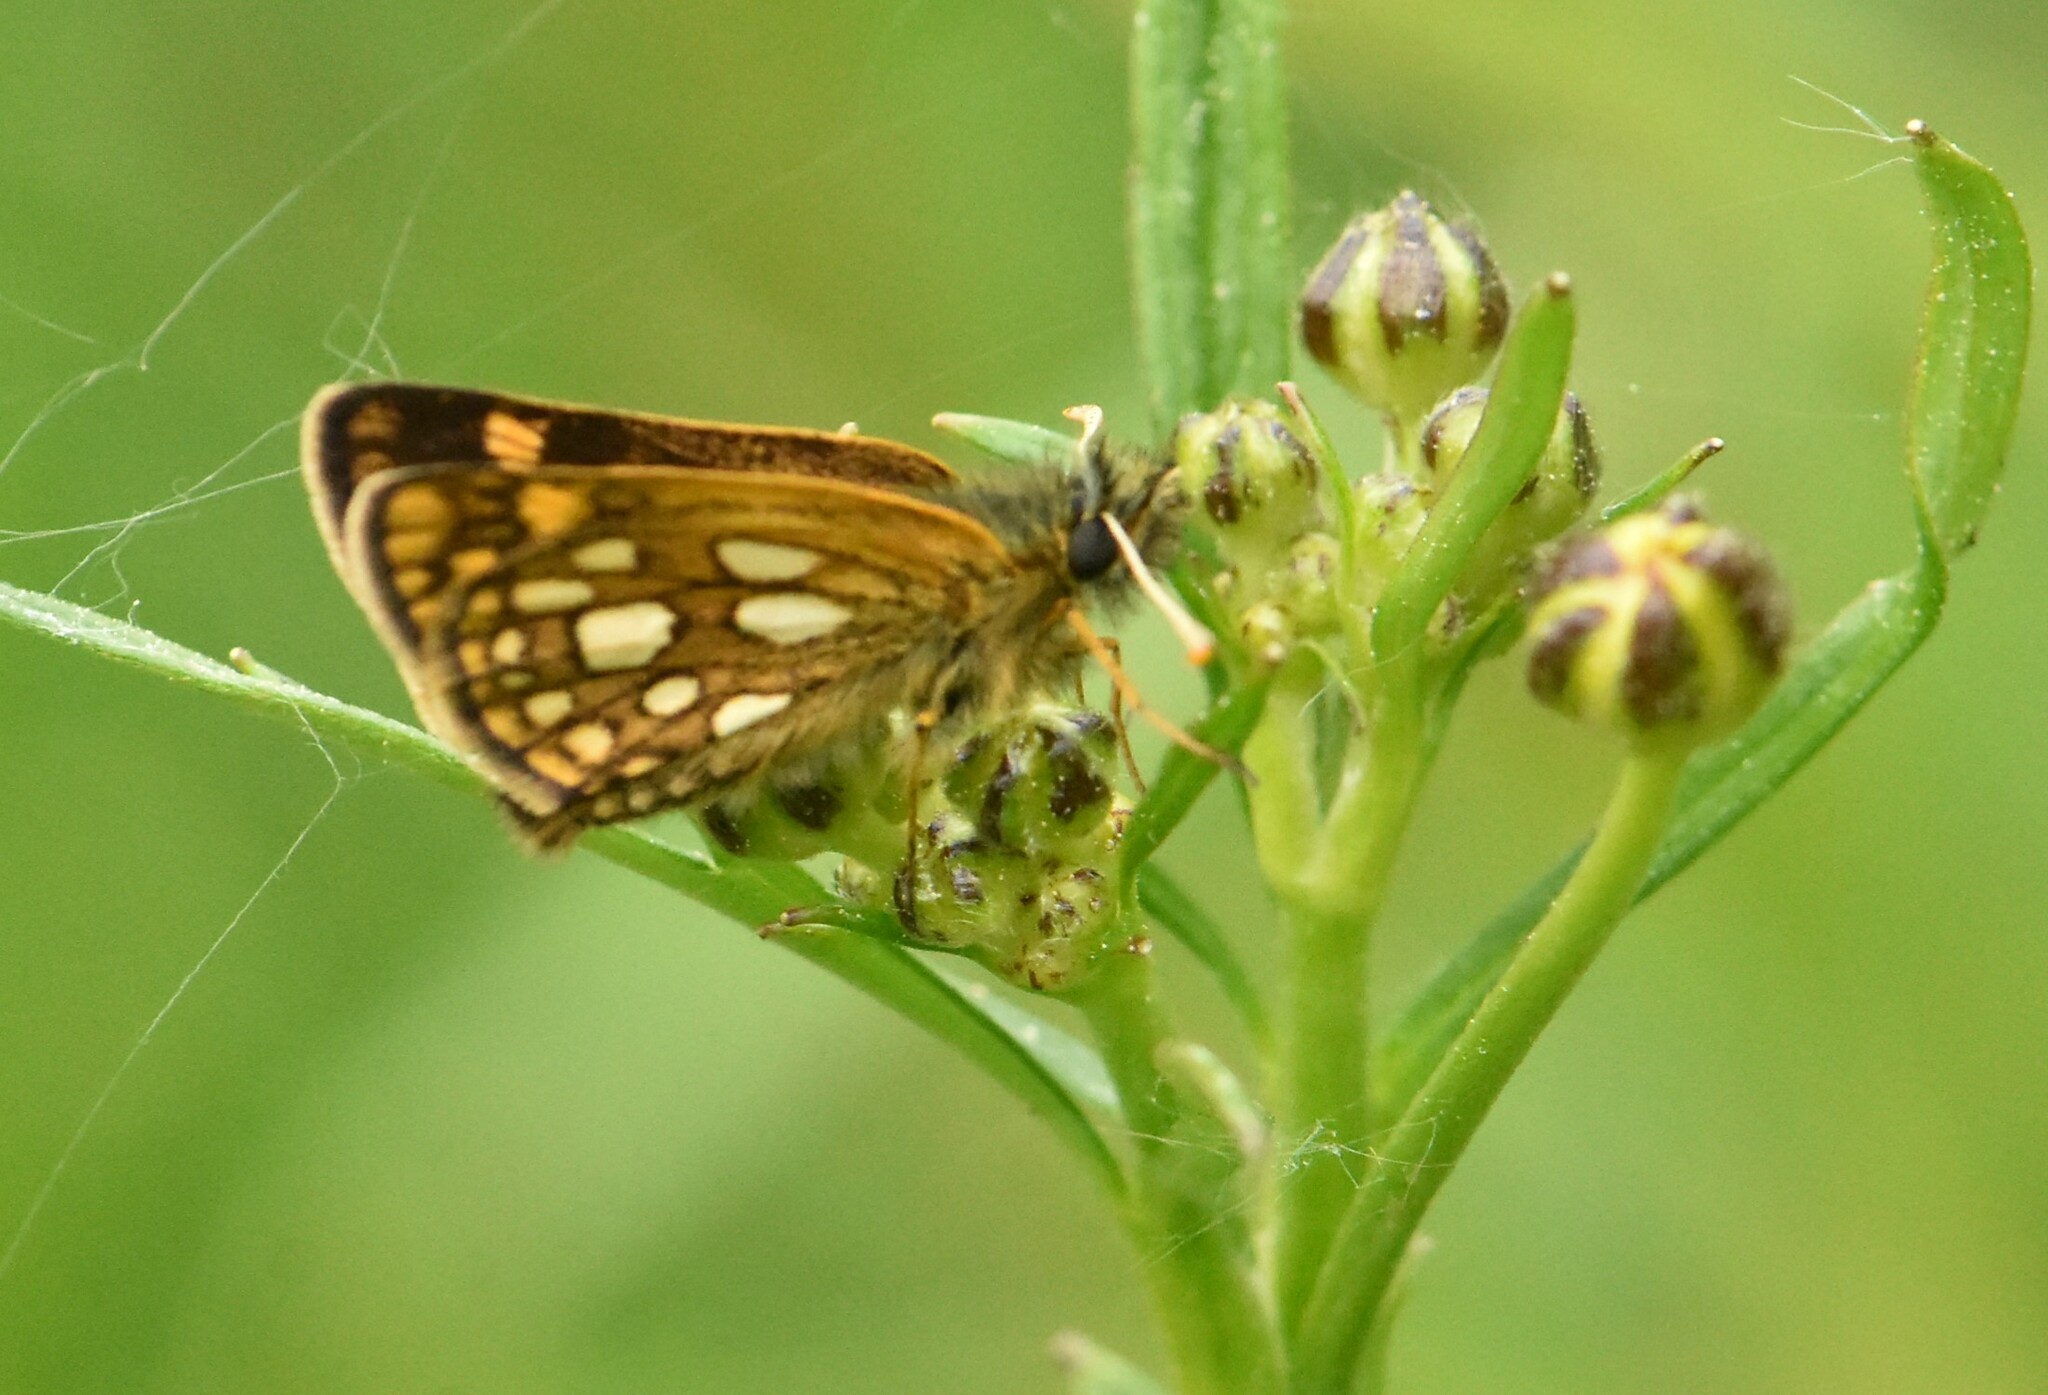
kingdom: Animalia
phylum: Arthropoda
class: Insecta
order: Lepidoptera
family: Hesperiidae
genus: Carterocephalus
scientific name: Carterocephalus palaemon
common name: Chequered skipper
